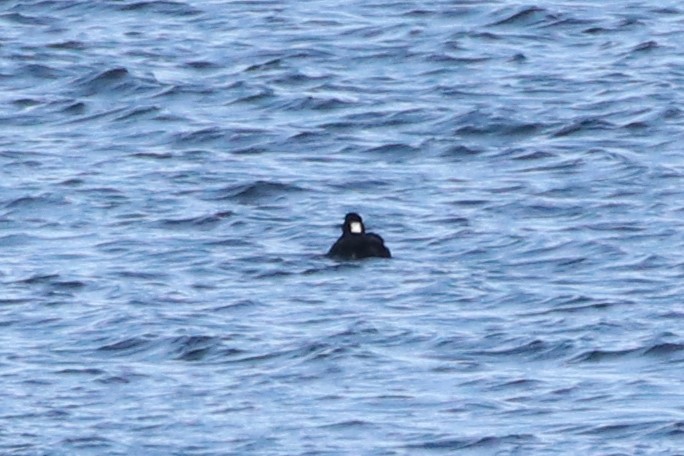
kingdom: Animalia
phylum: Chordata
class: Aves
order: Anseriformes
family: Anatidae
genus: Melanitta
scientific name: Melanitta perspicillata
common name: Surf scoter
